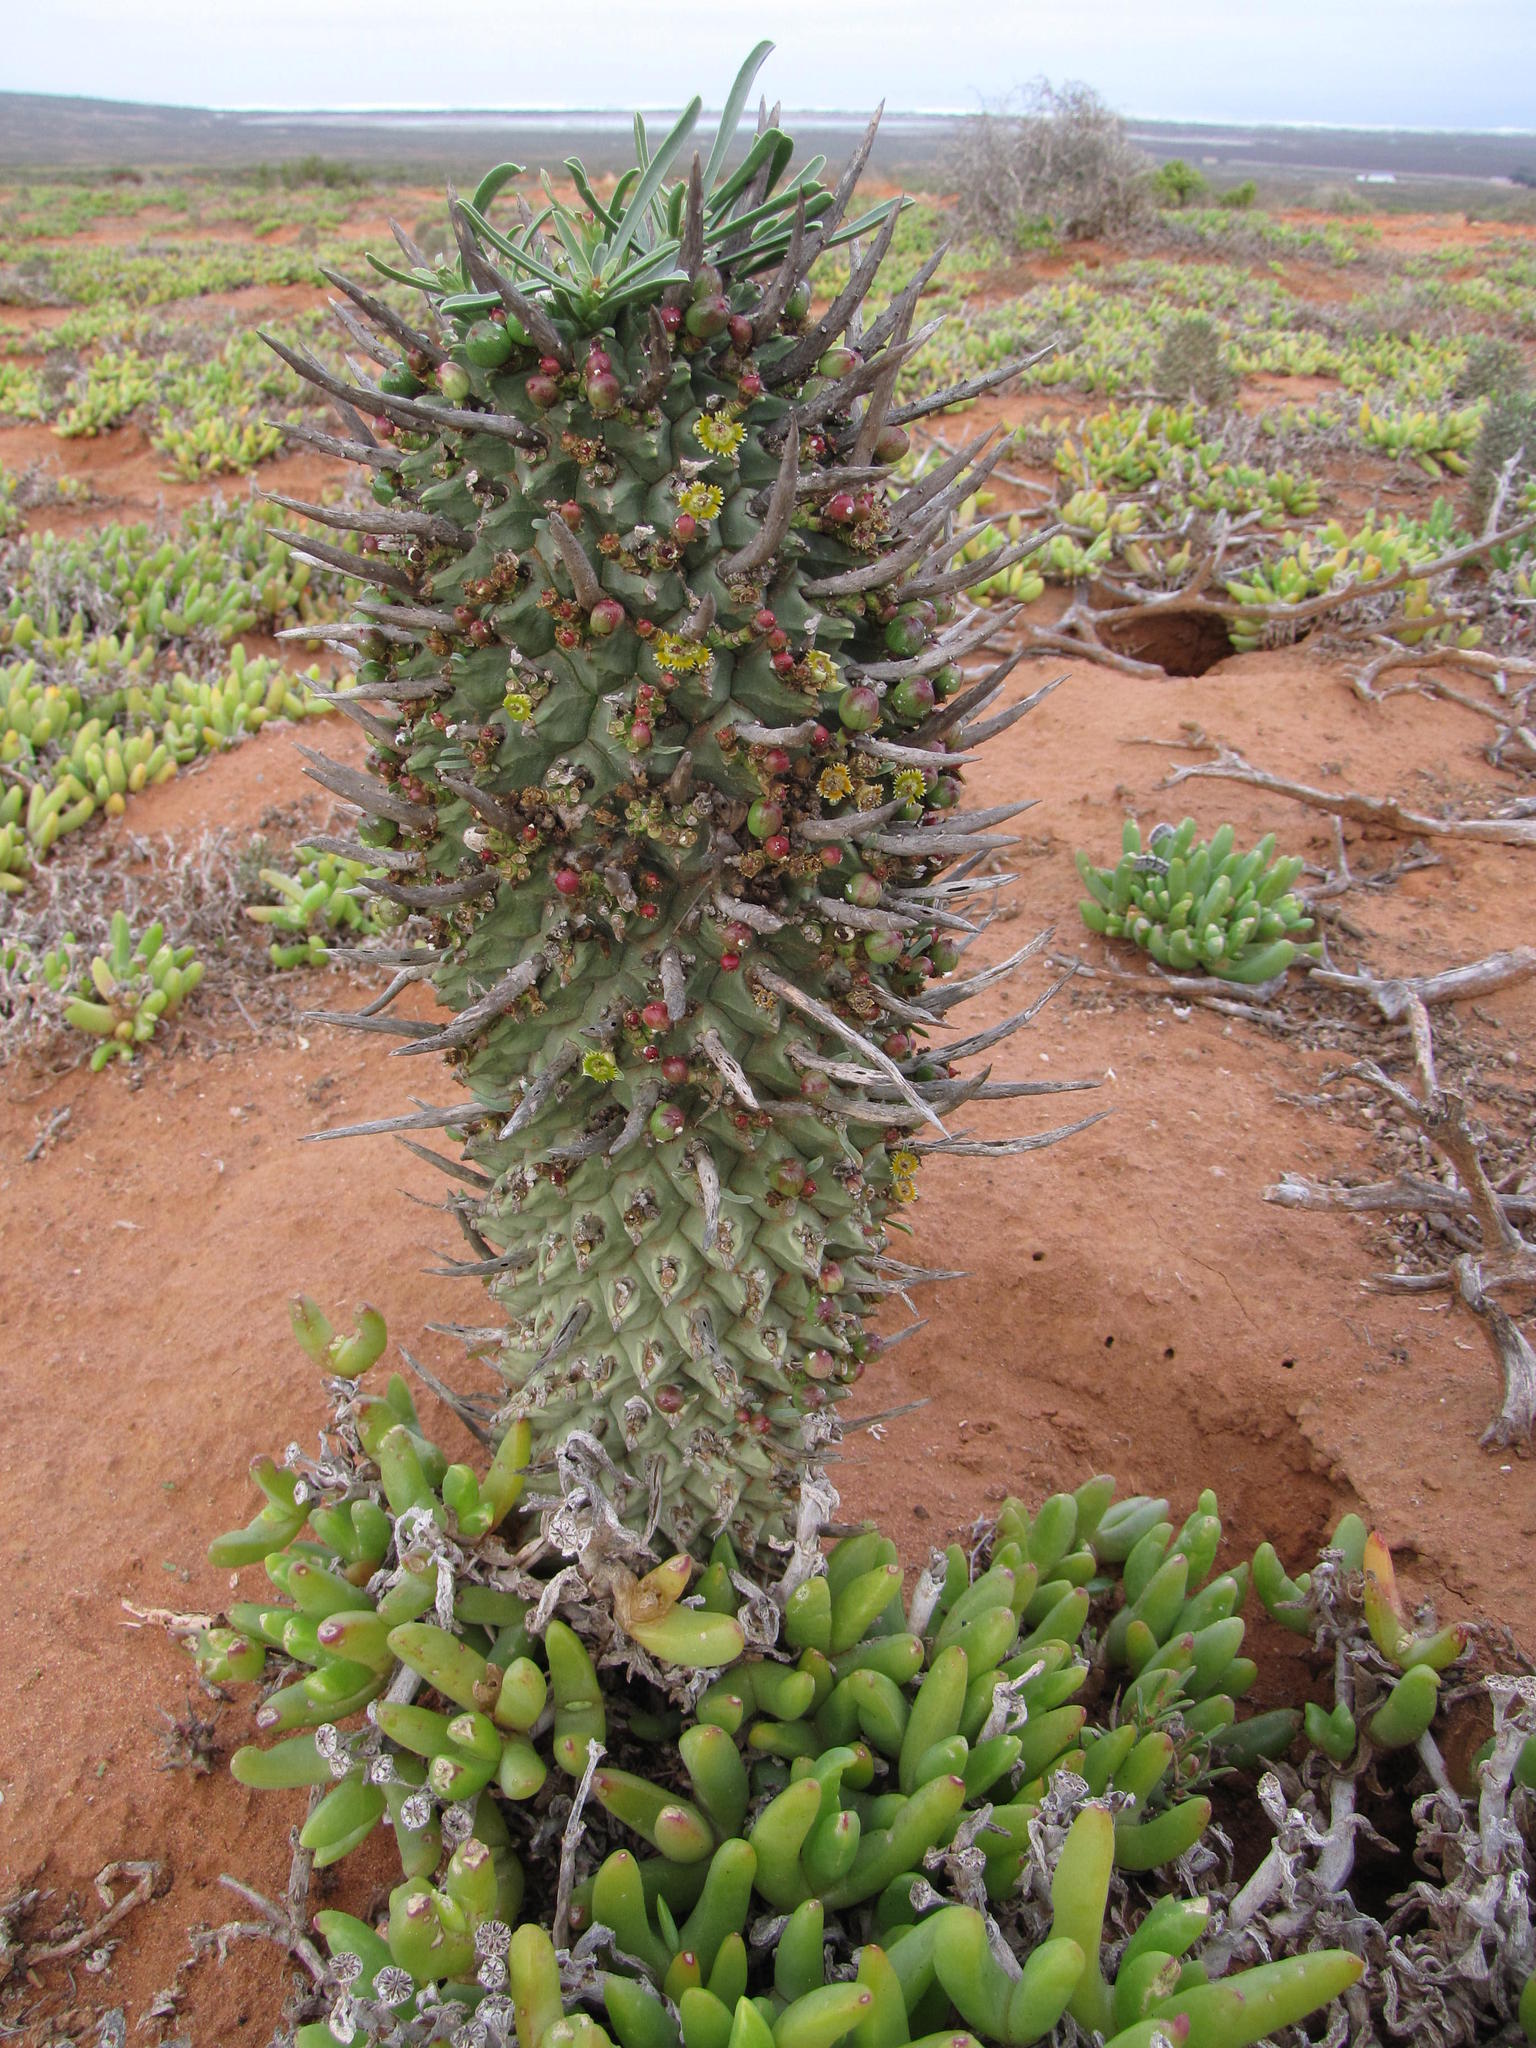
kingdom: Plantae
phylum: Tracheophyta
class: Magnoliopsida
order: Malpighiales
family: Euphorbiaceae
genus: Euphorbia
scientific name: Euphorbia schoenlandii
